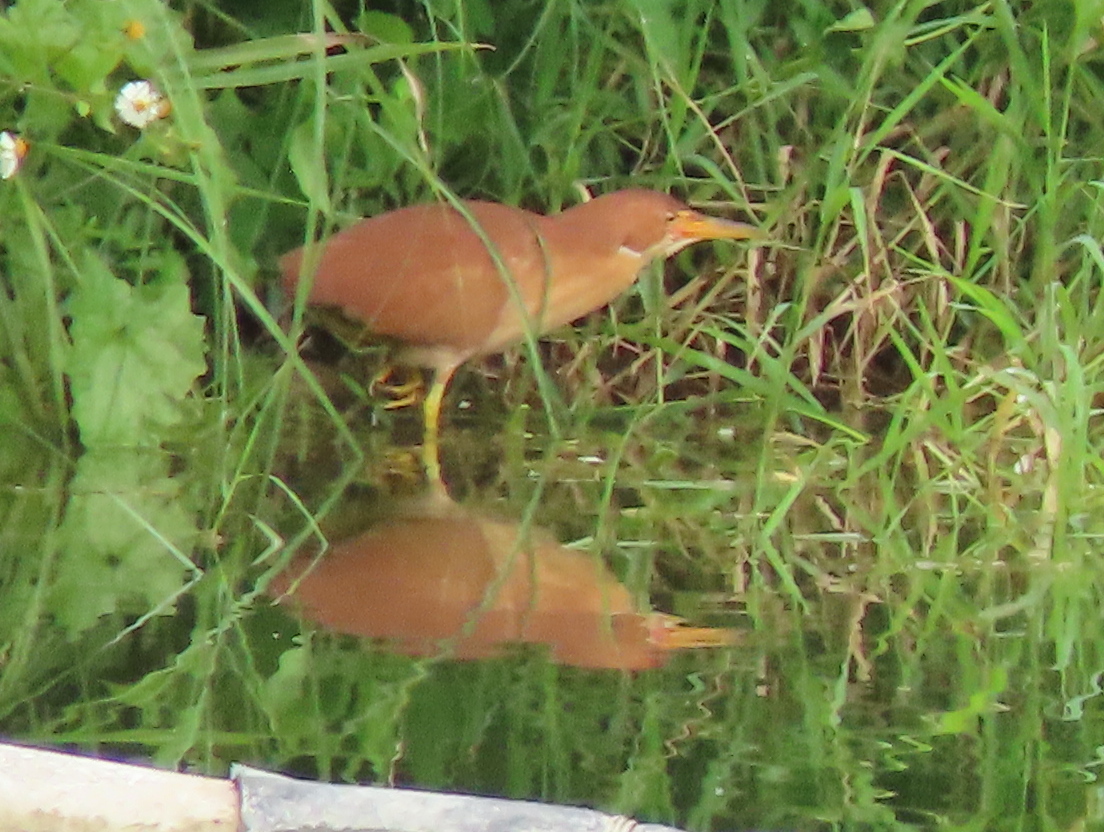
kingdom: Animalia
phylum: Chordata
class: Aves
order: Pelecaniformes
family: Ardeidae
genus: Ixobrychus
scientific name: Ixobrychus cinnamomeus
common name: Cinnamon bittern
